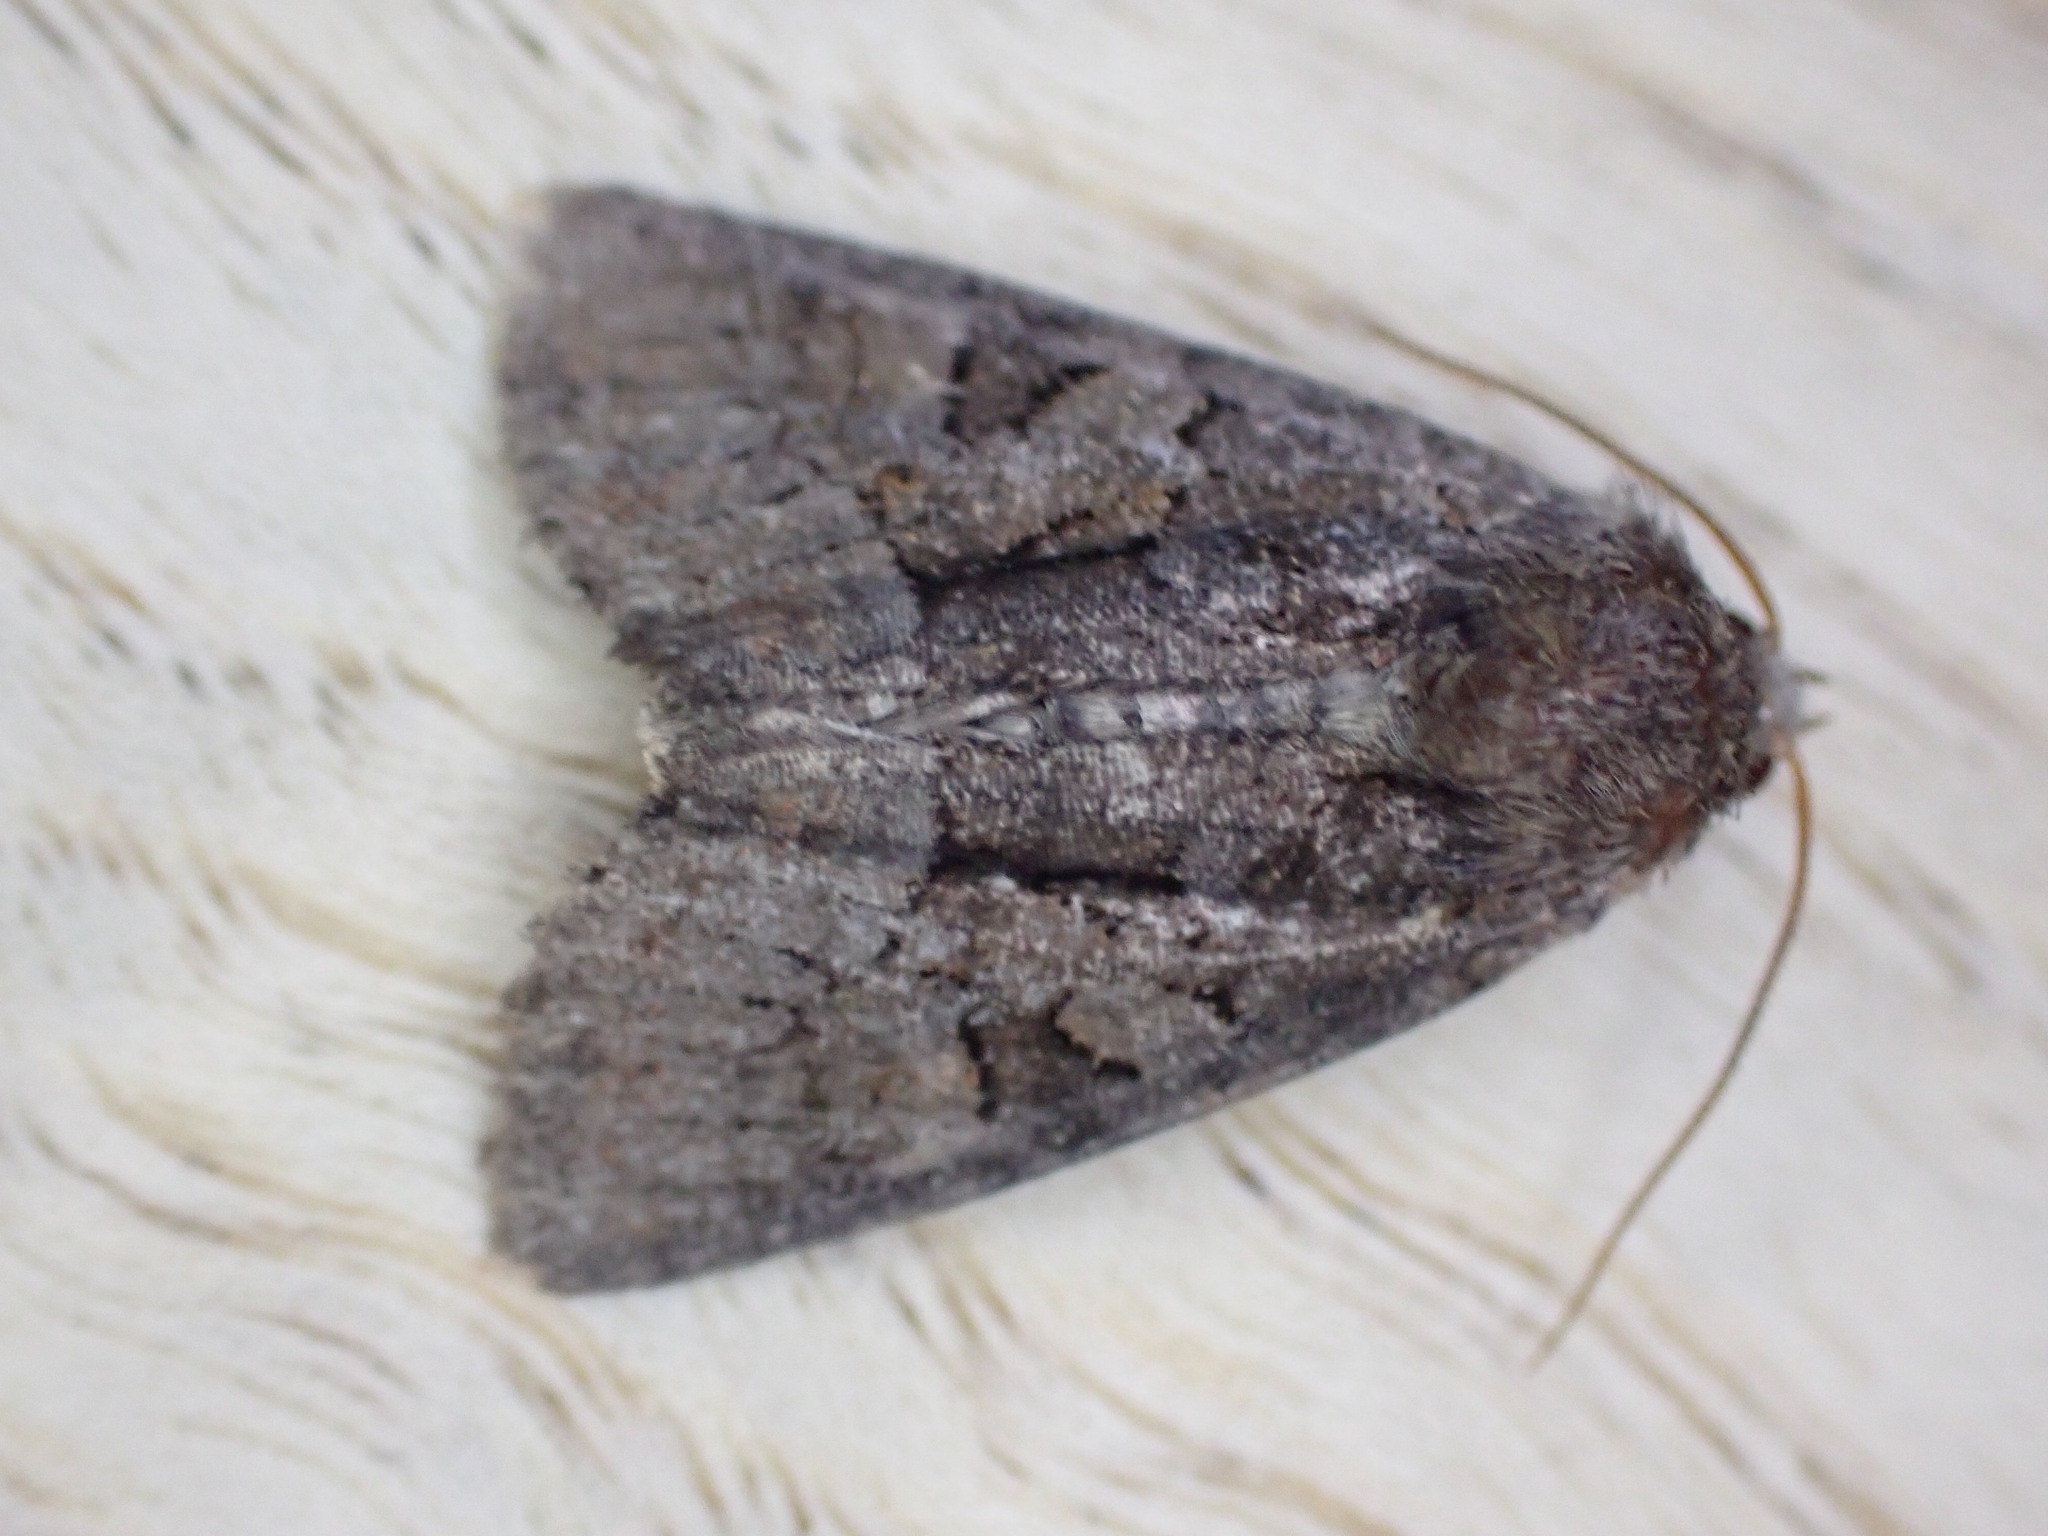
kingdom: Animalia
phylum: Arthropoda
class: Insecta
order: Lepidoptera
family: Noctuidae
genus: Oligia
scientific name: Oligia versicolor
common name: Rufous minor
